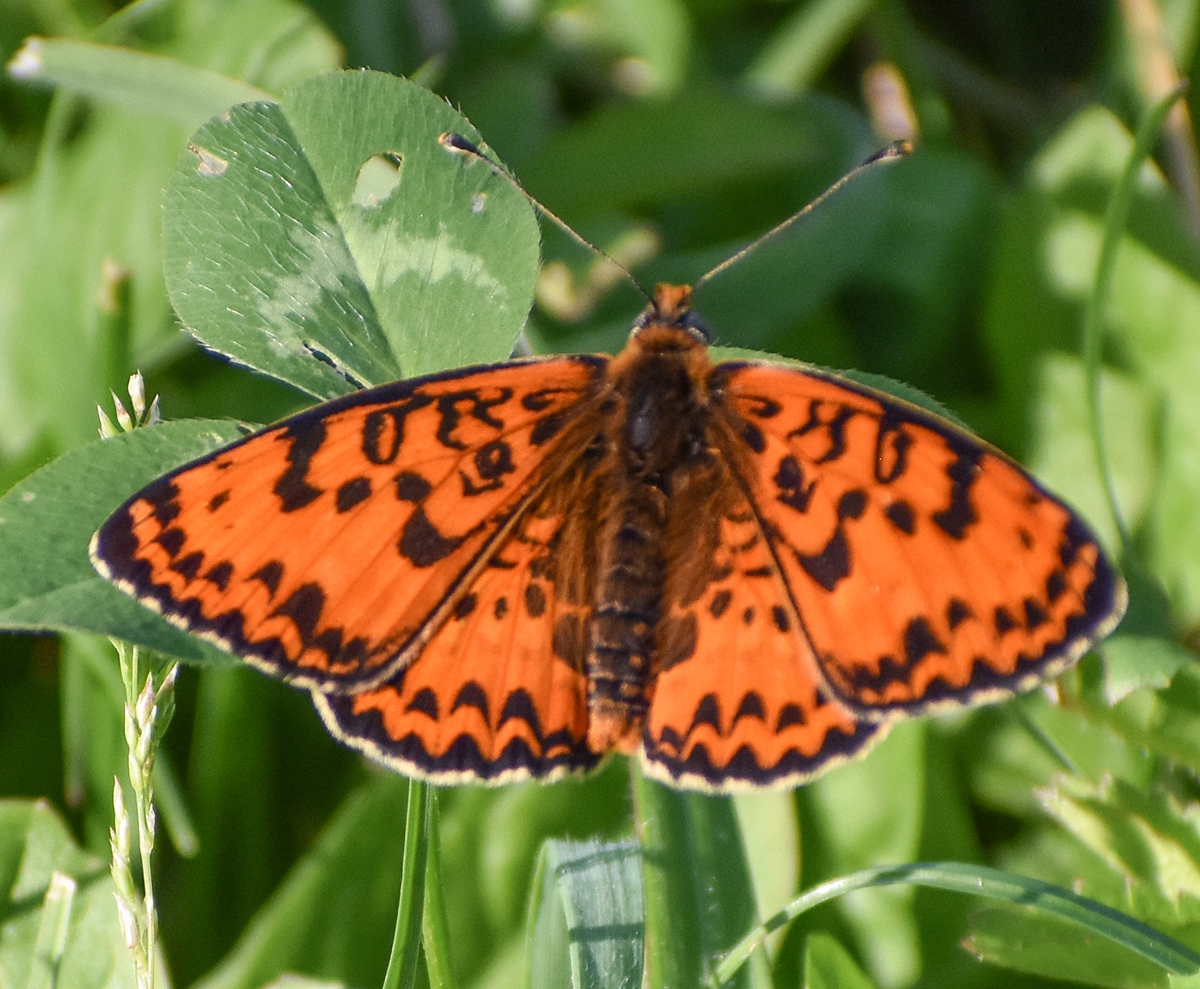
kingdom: Animalia
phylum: Arthropoda
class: Insecta
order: Lepidoptera
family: Nymphalidae
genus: Melitaea
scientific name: Melitaea didyma
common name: Spotted fritillary
